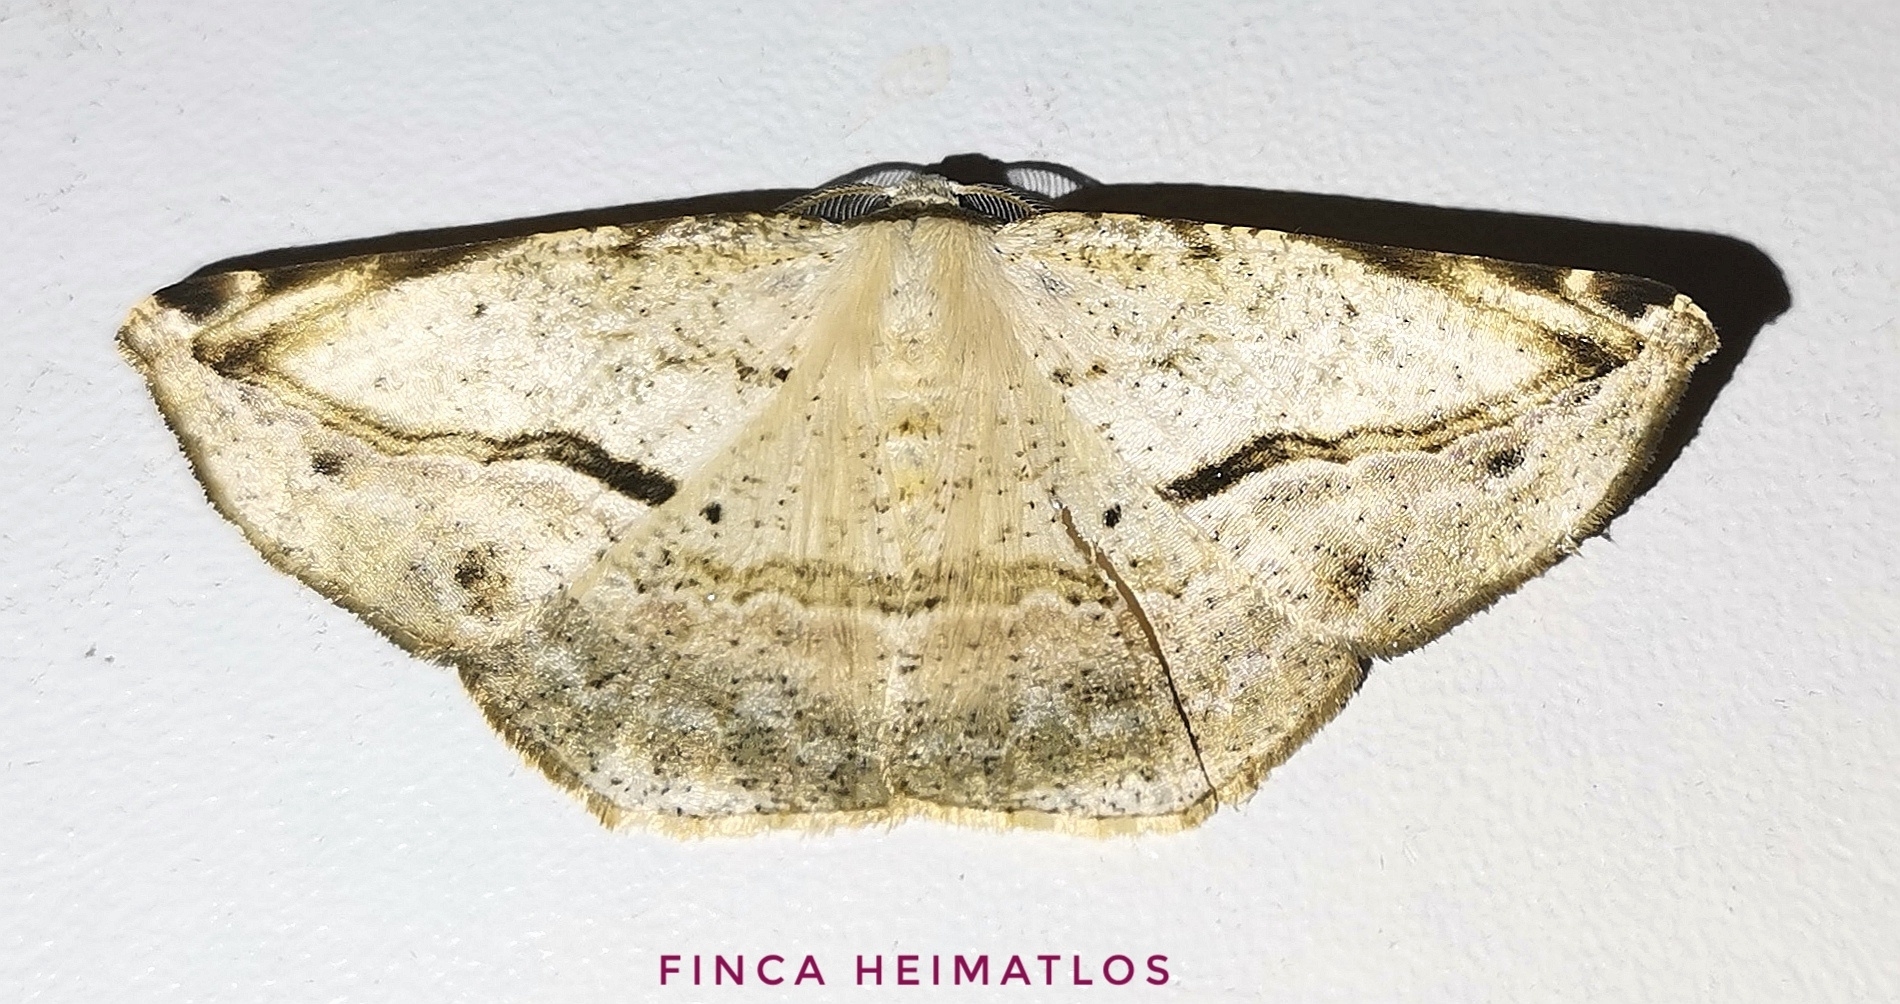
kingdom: Animalia
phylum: Arthropoda
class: Insecta
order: Lepidoptera
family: Geometridae
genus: Eusarca
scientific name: Eusarca nemora
